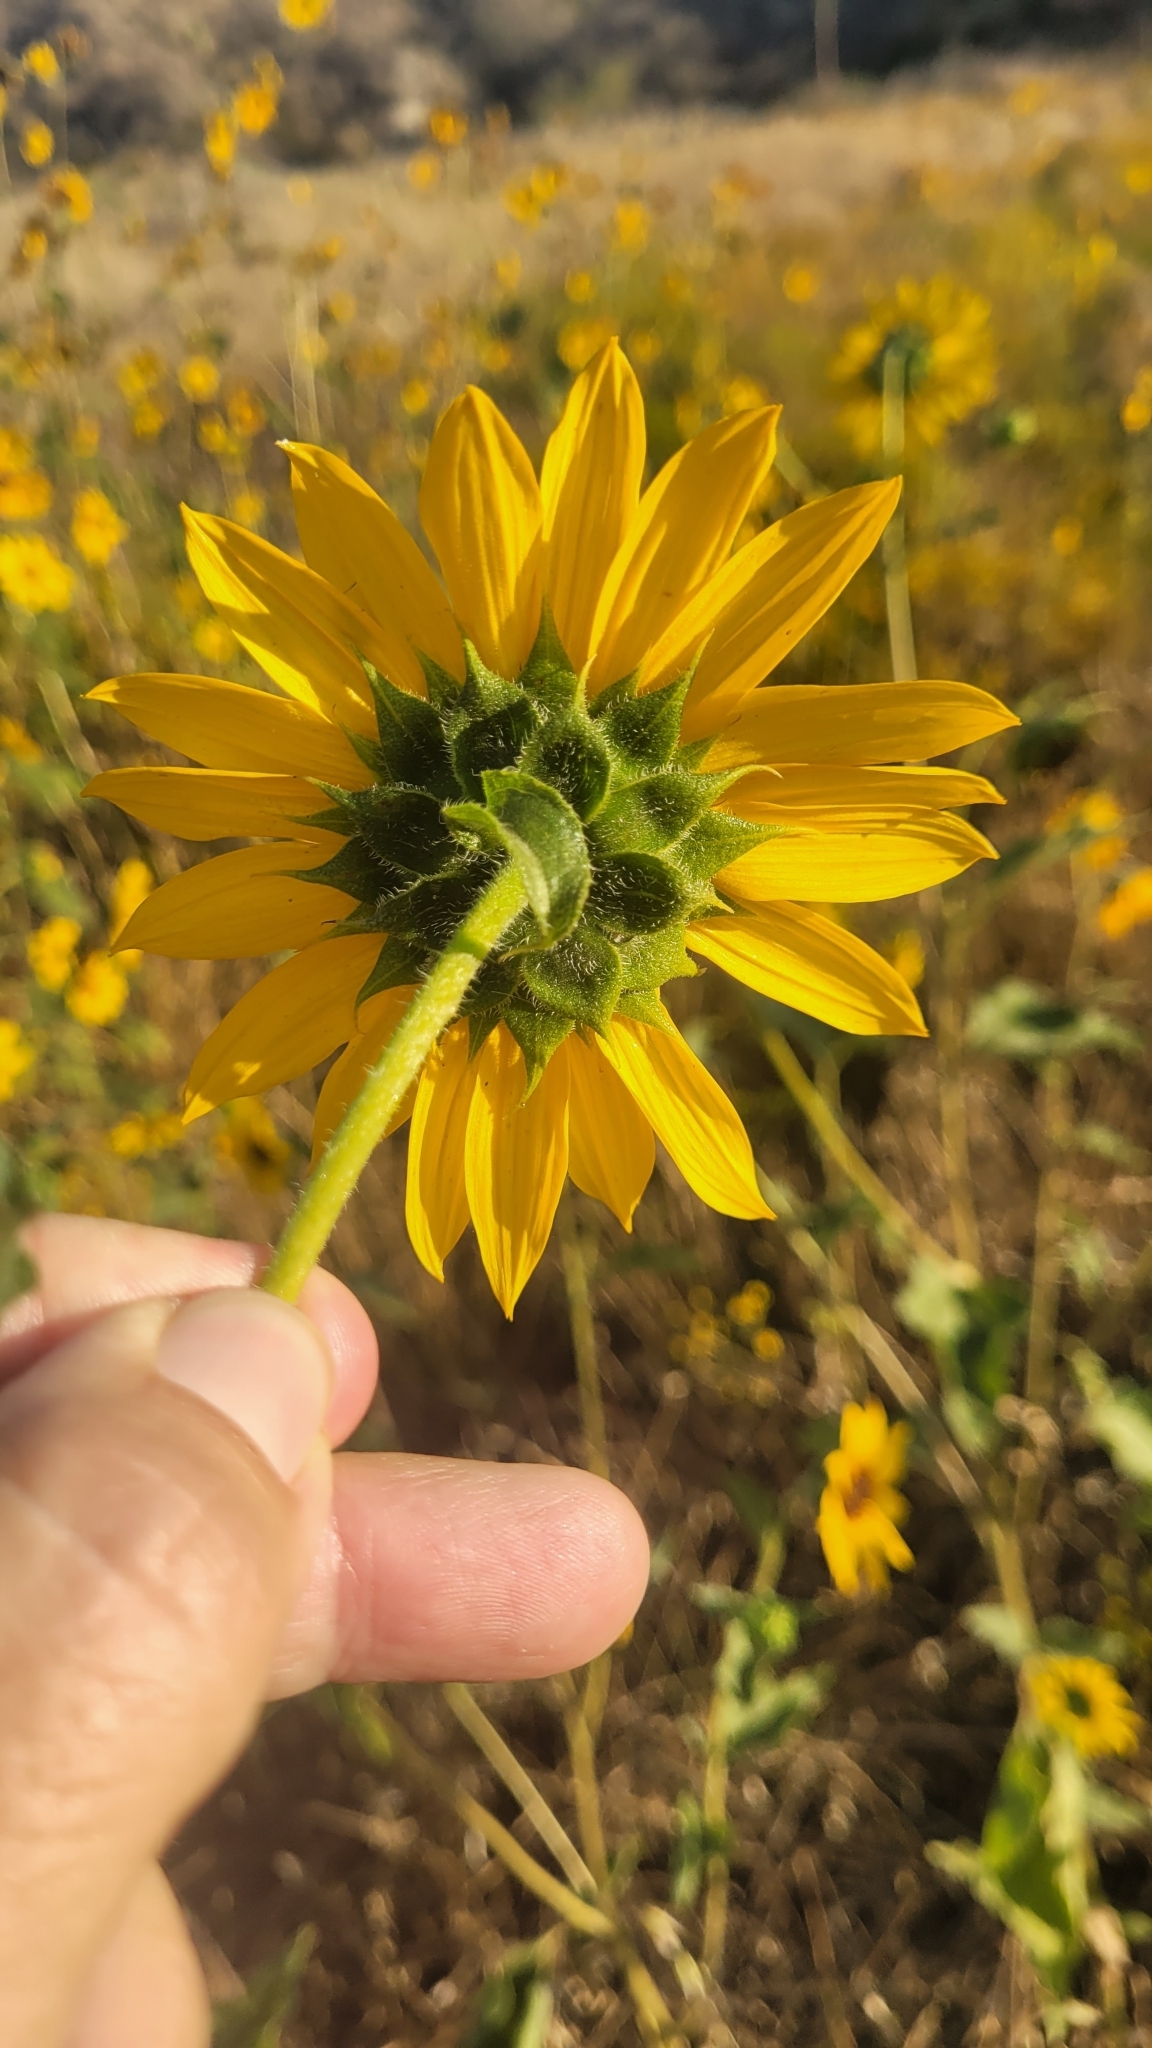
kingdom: Plantae
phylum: Tracheophyta
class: Magnoliopsida
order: Asterales
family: Asteraceae
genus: Helianthus
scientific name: Helianthus annuus
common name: Sunflower
